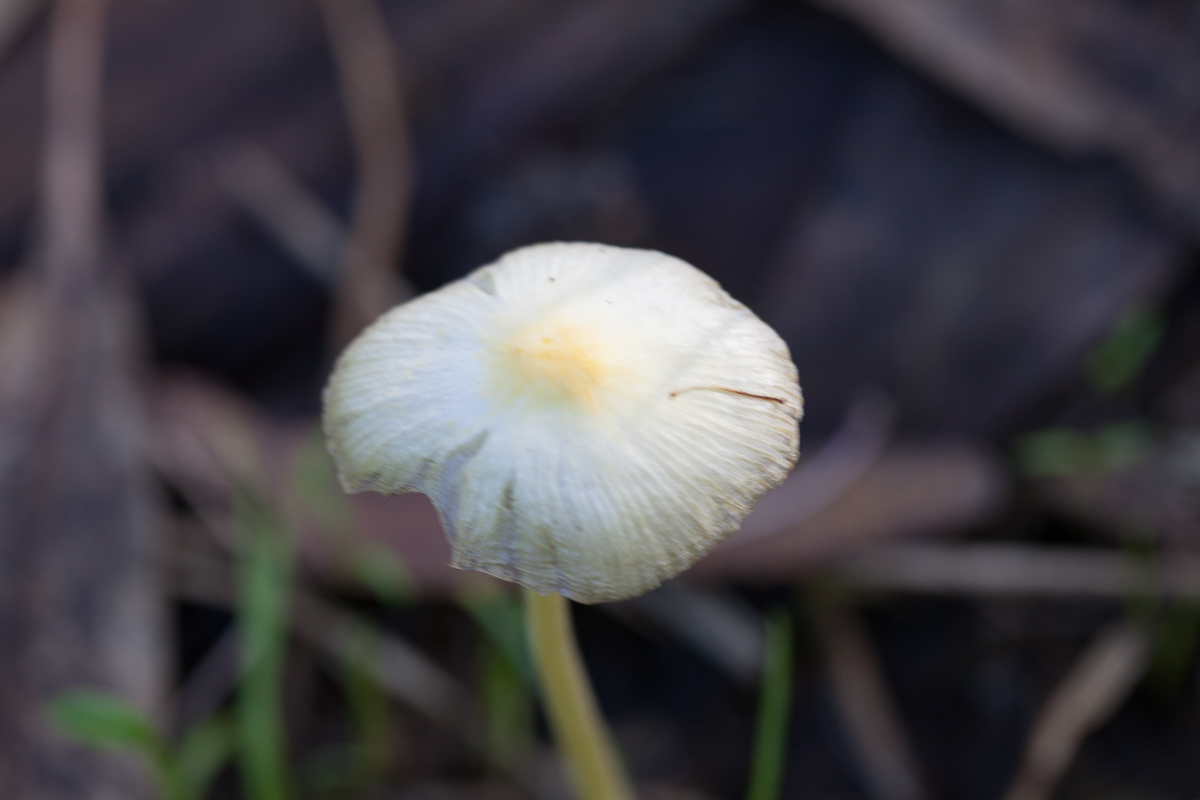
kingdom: Fungi
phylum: Basidiomycota
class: Agaricomycetes
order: Agaricales
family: Bolbitiaceae
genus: Bolbitius
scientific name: Bolbitius titubans
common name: Yellow fieldcap
